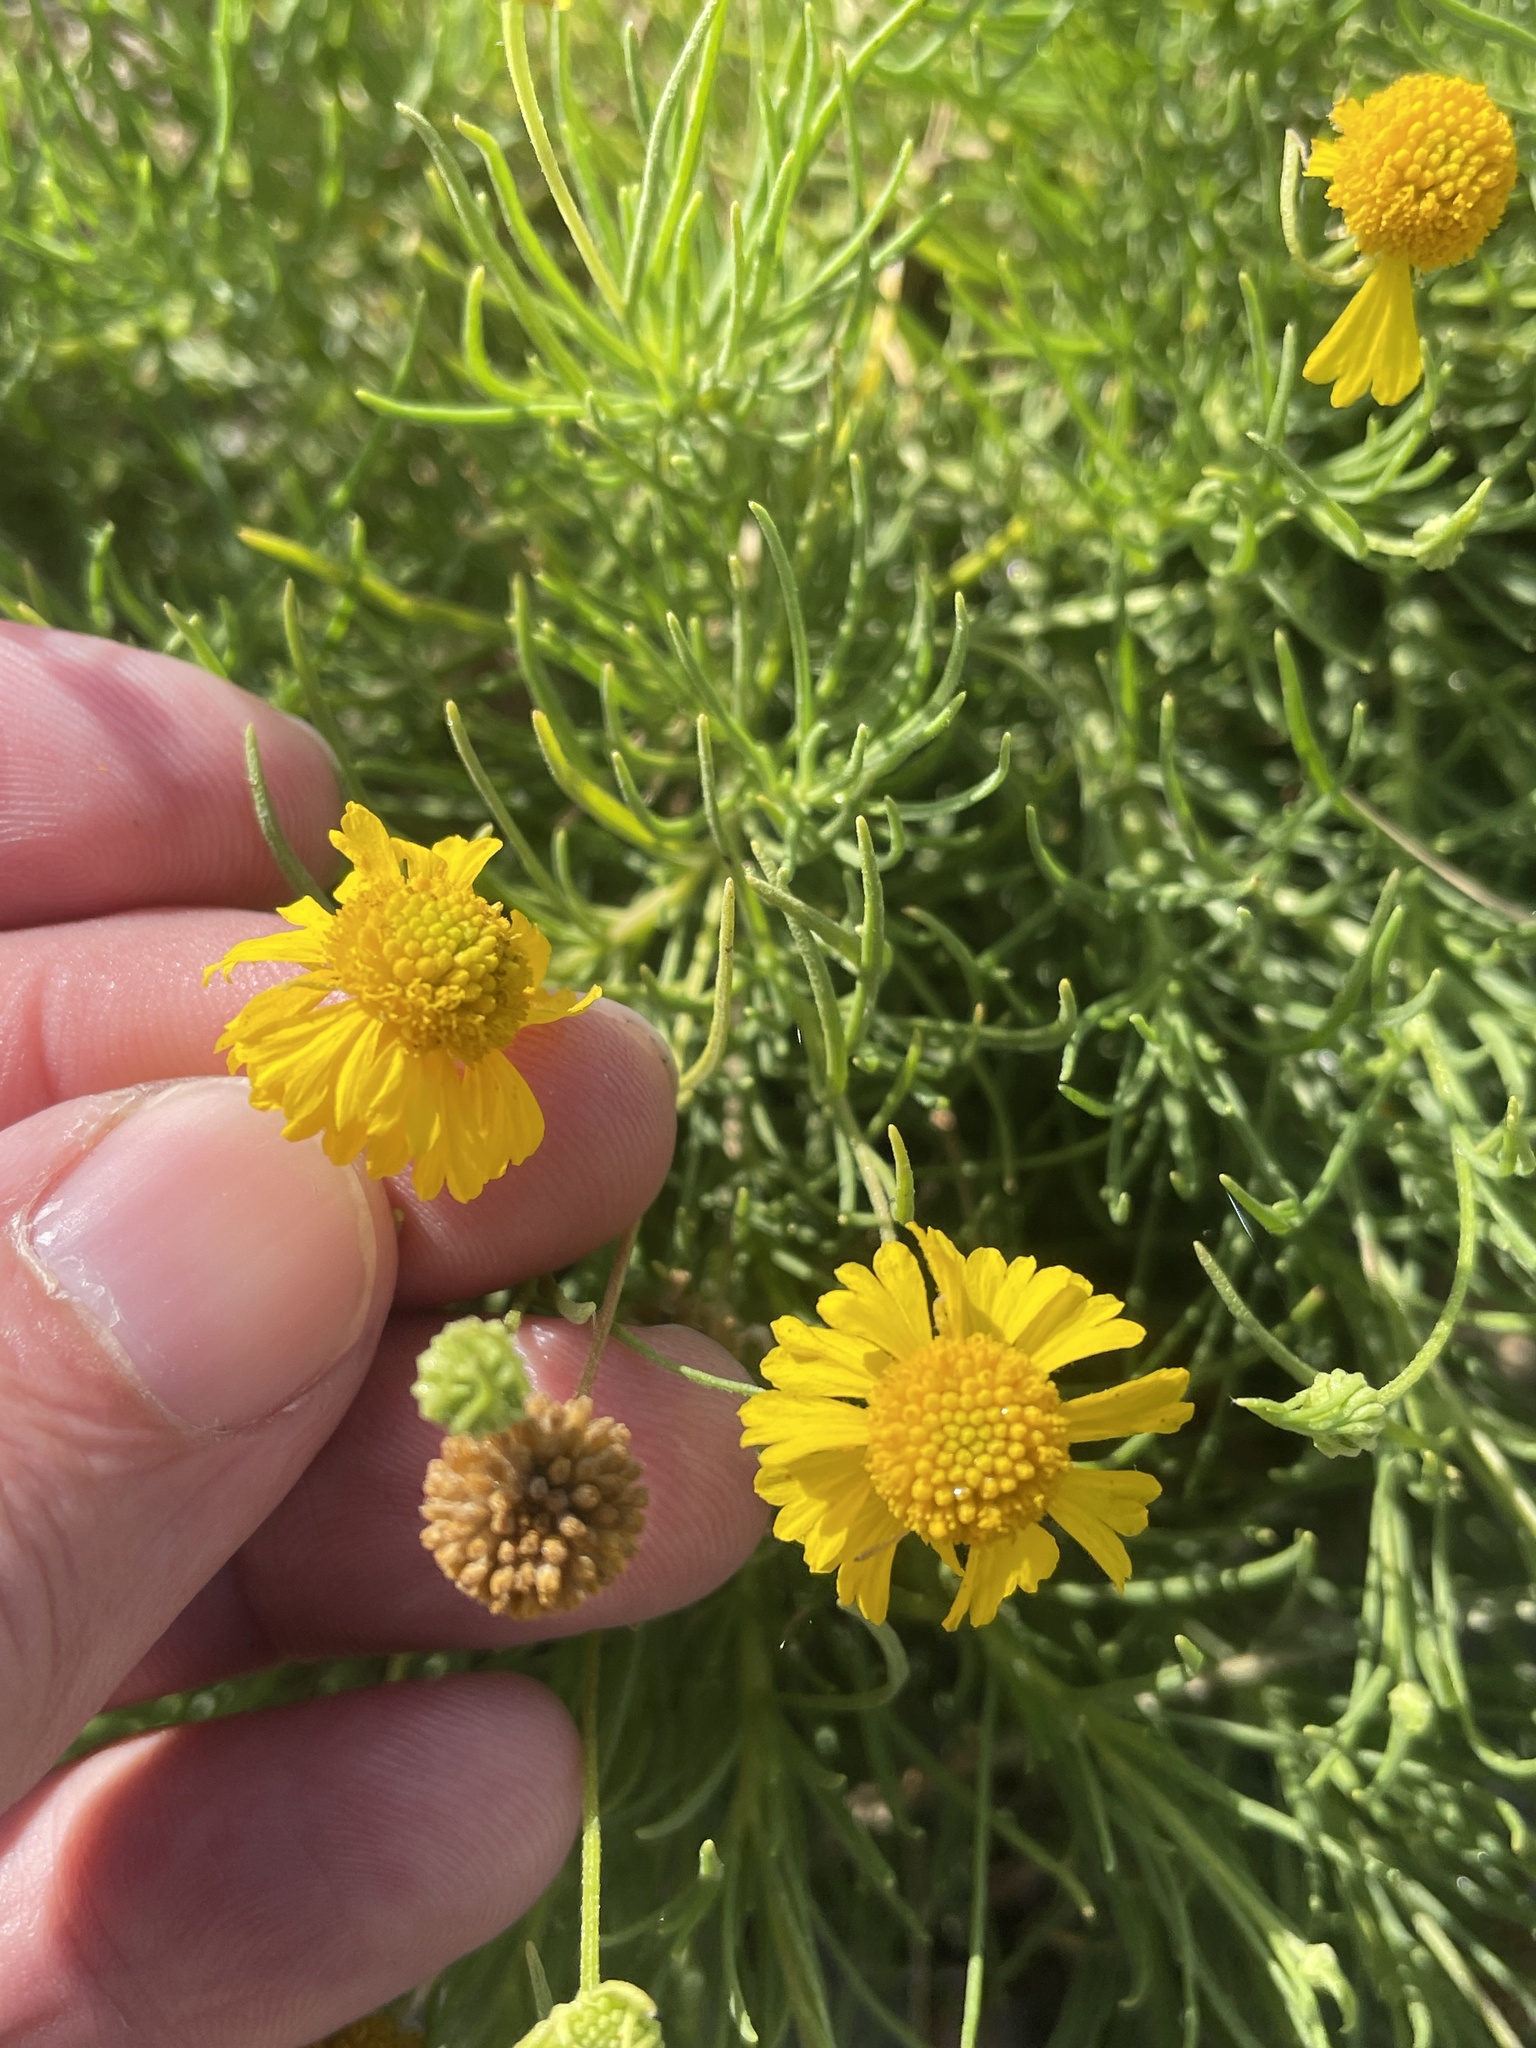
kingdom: Plantae
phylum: Tracheophyta
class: Magnoliopsida
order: Asterales
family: Asteraceae
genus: Helenium
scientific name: Helenium amarum
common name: Bitter sneezeweed
